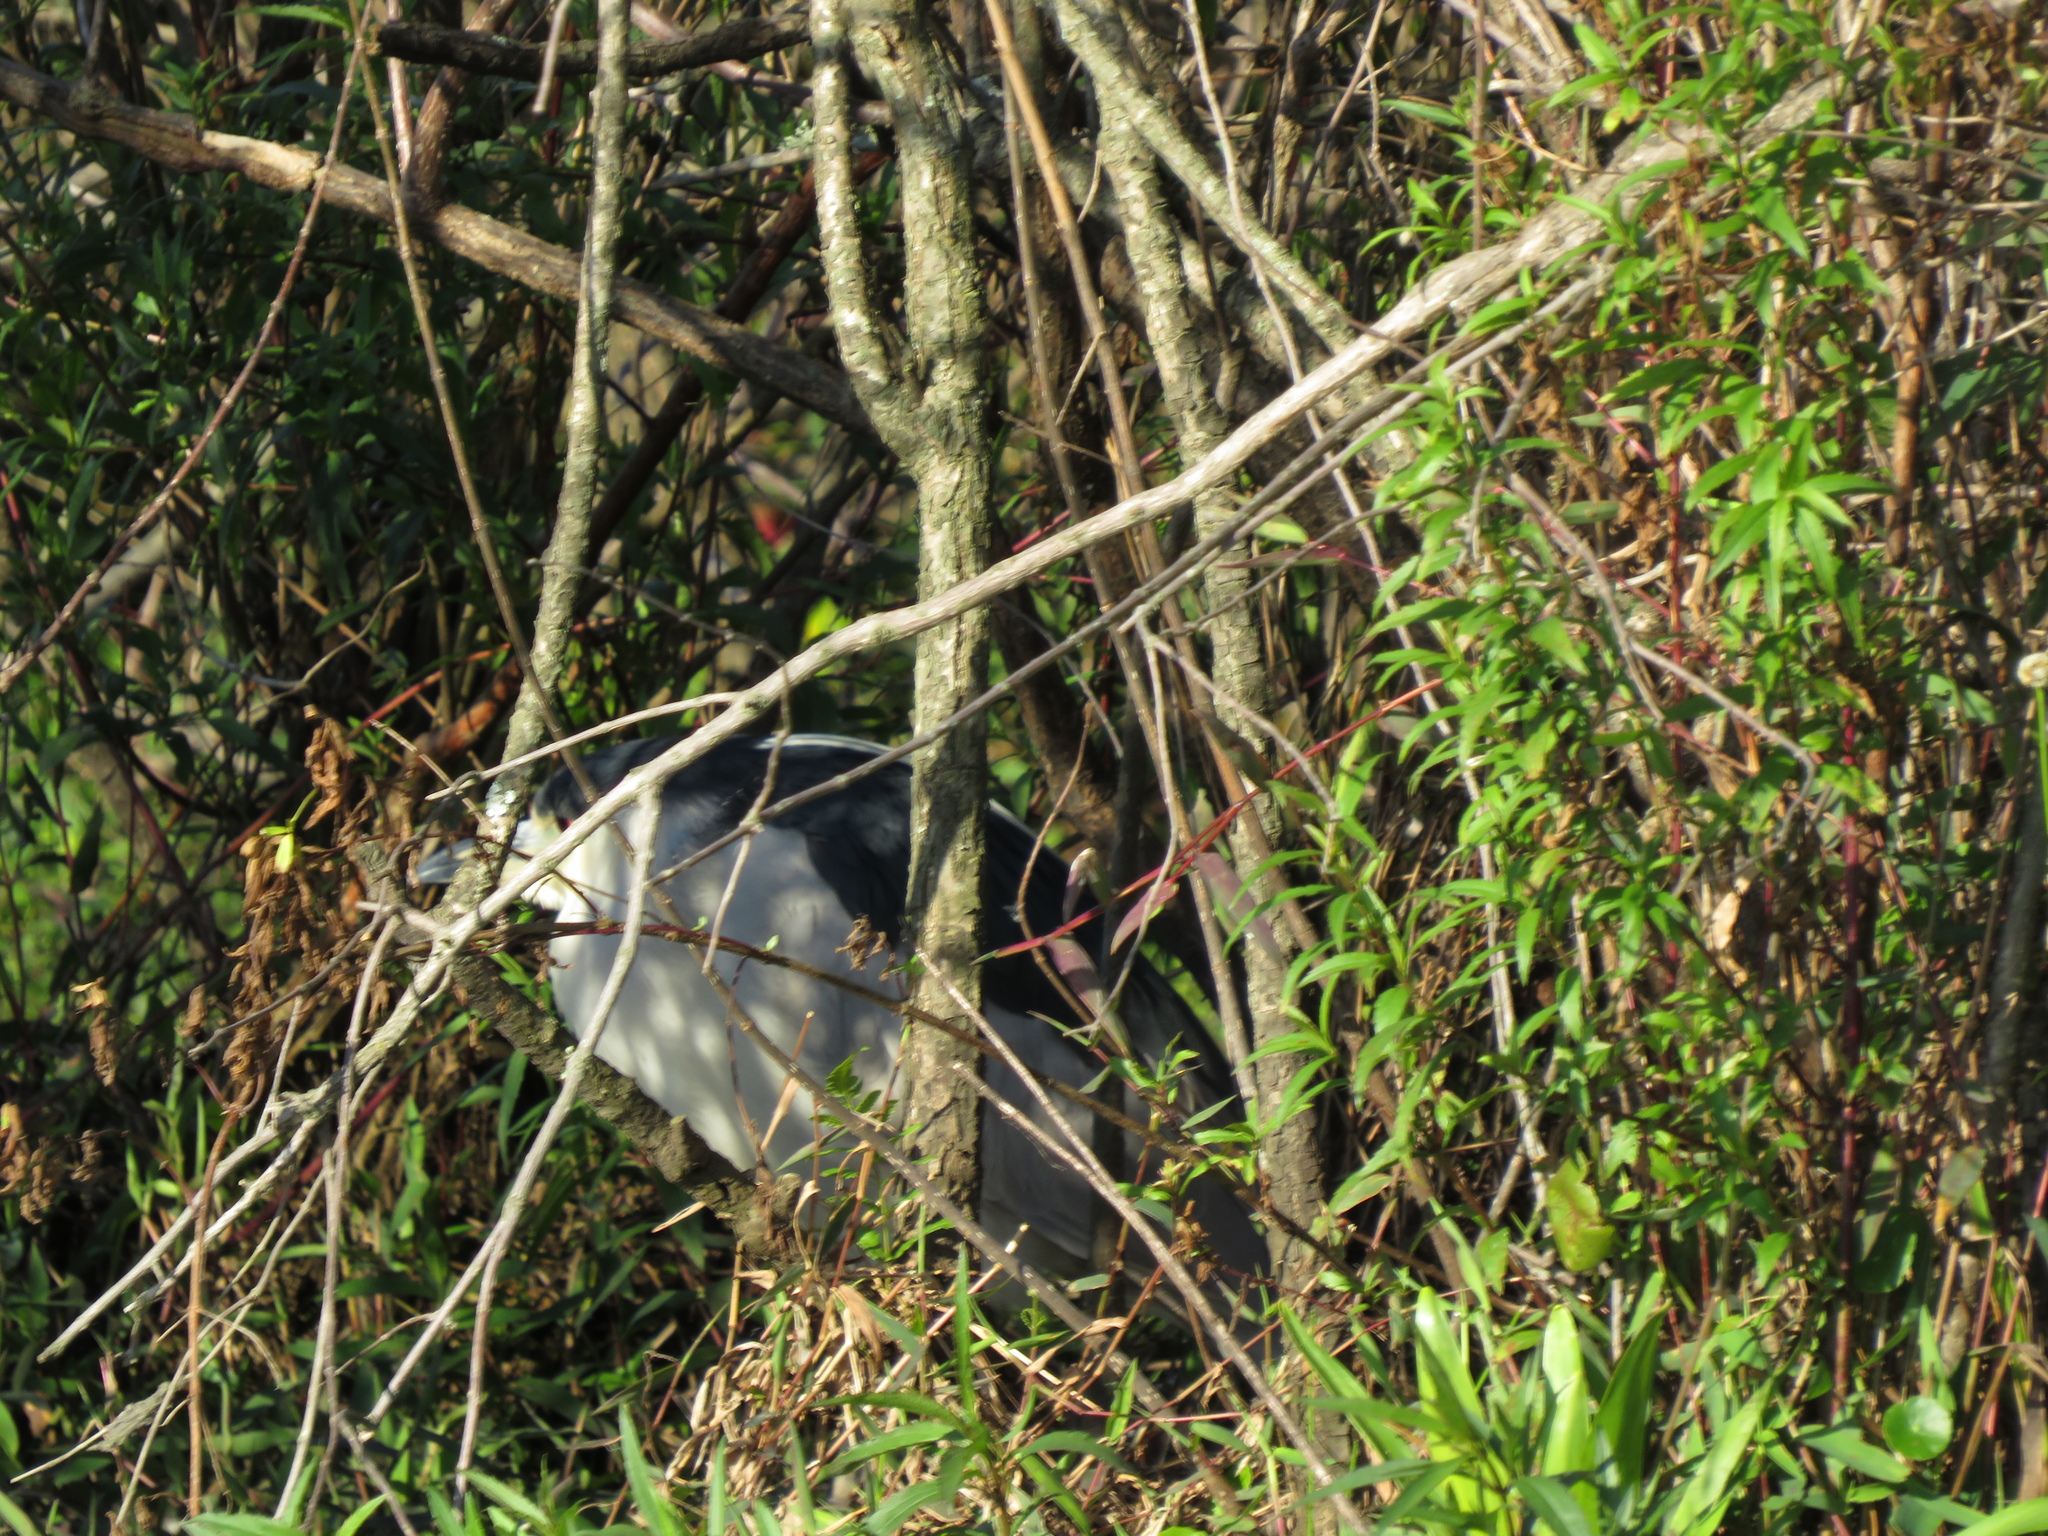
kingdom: Animalia
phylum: Chordata
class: Aves
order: Pelecaniformes
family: Ardeidae
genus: Nycticorax
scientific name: Nycticorax nycticorax
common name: Black-crowned night heron
